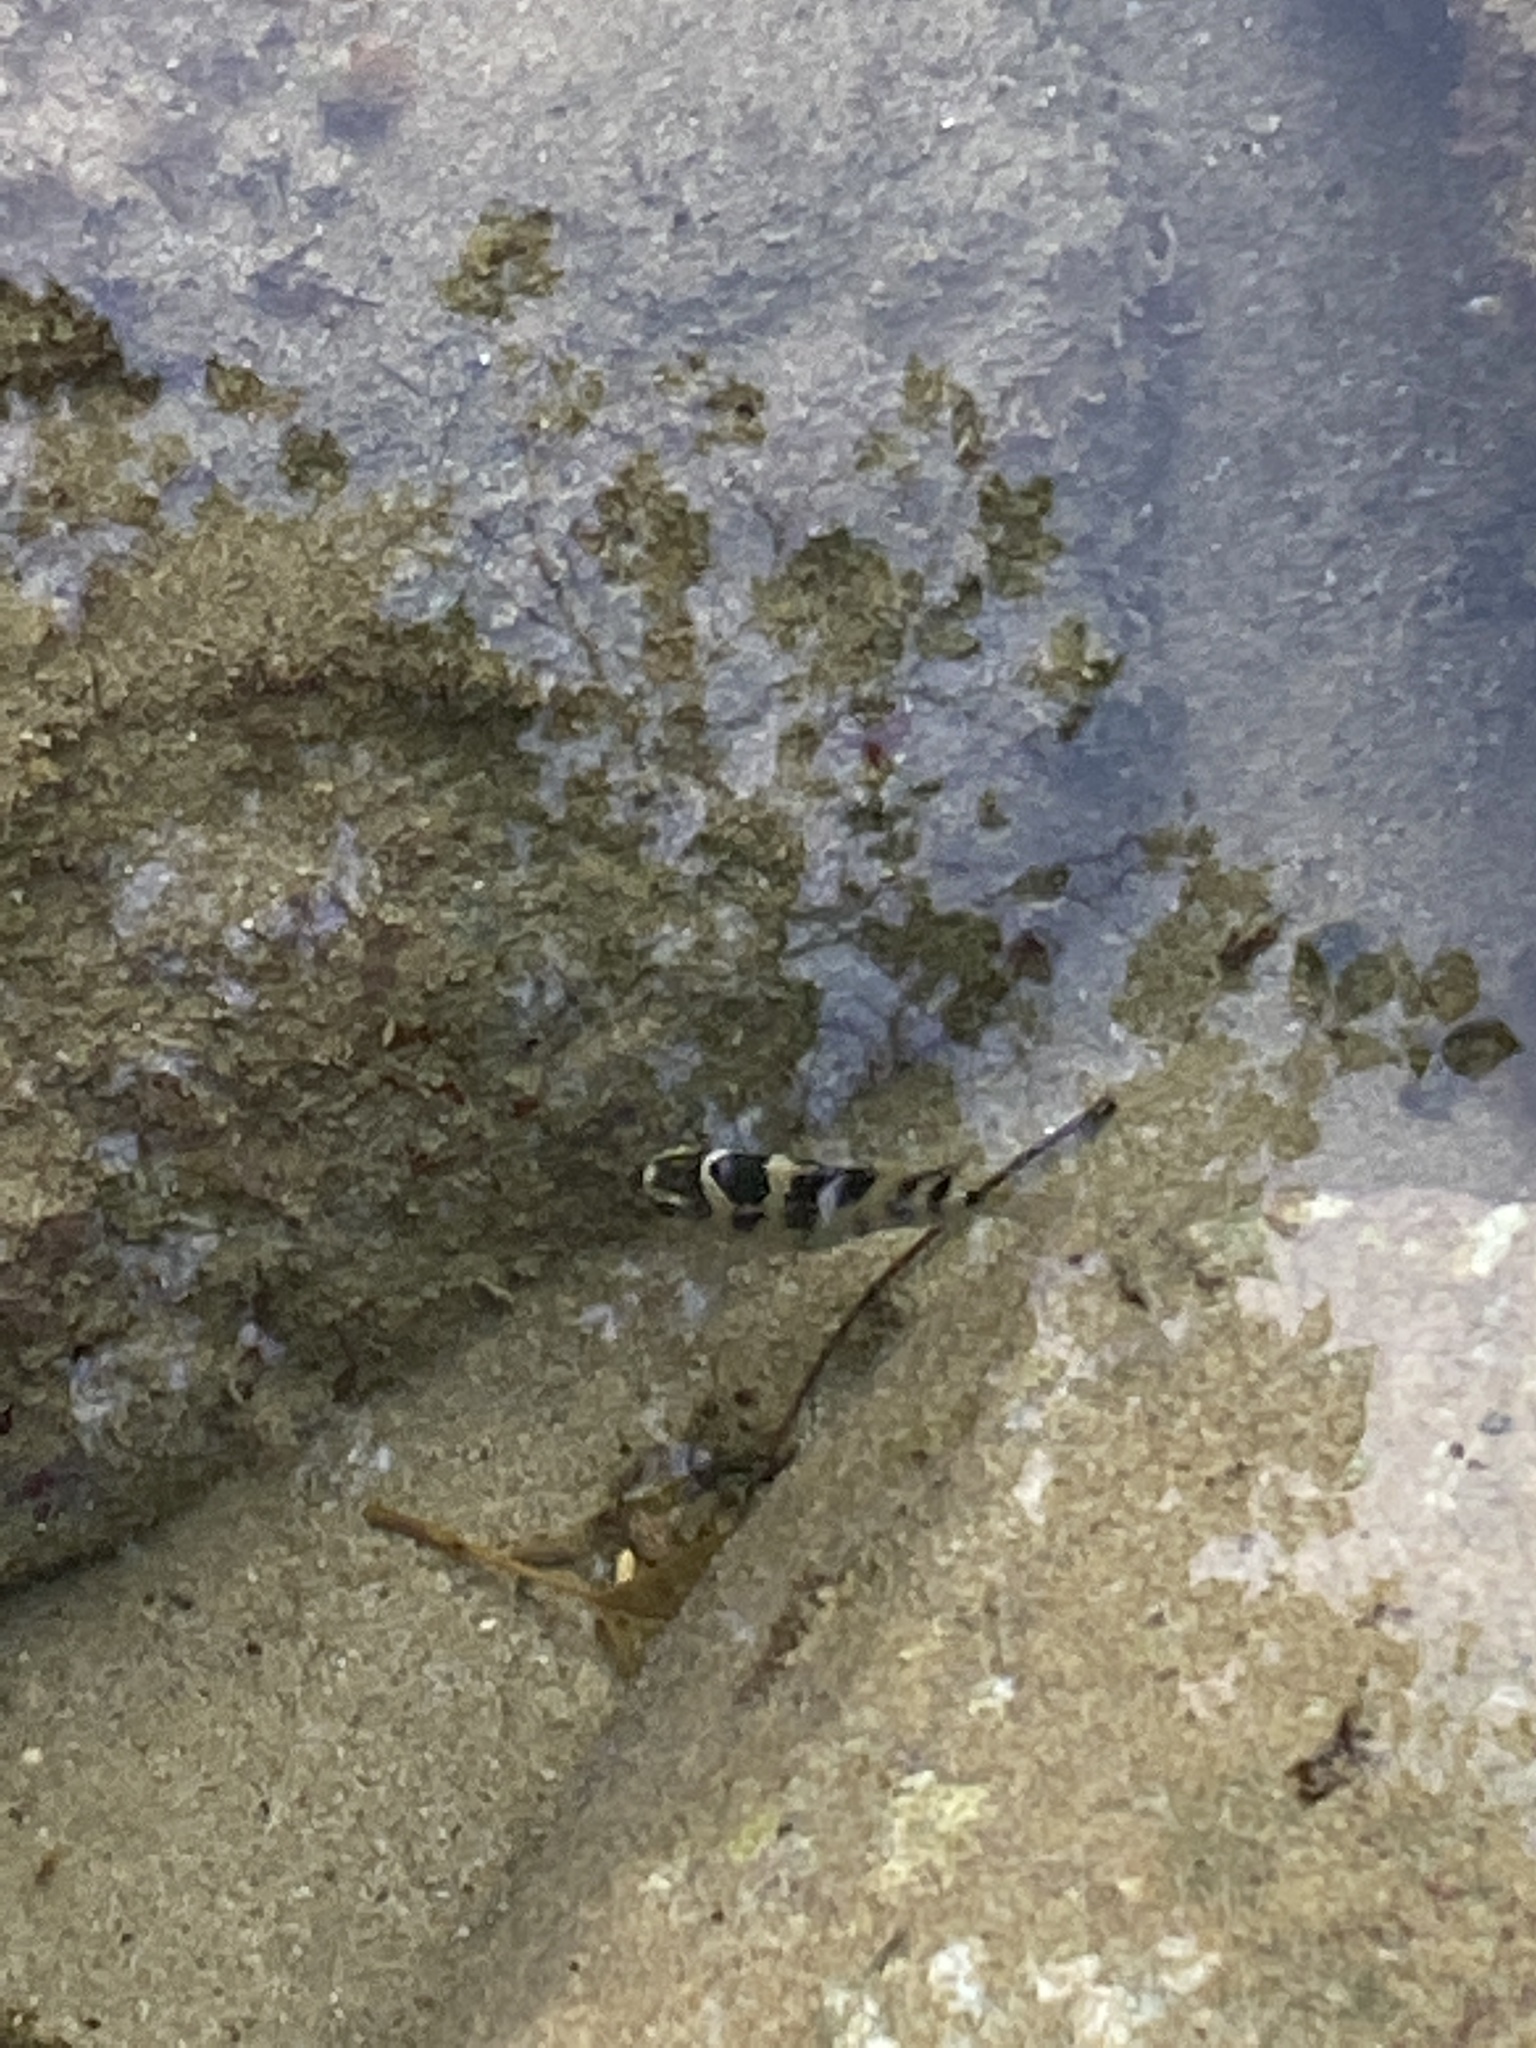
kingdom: Animalia
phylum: Chordata
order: Perciformes
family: Pomacentridae
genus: Abudefduf
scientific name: Abudefduf taurus
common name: Night sergeant
